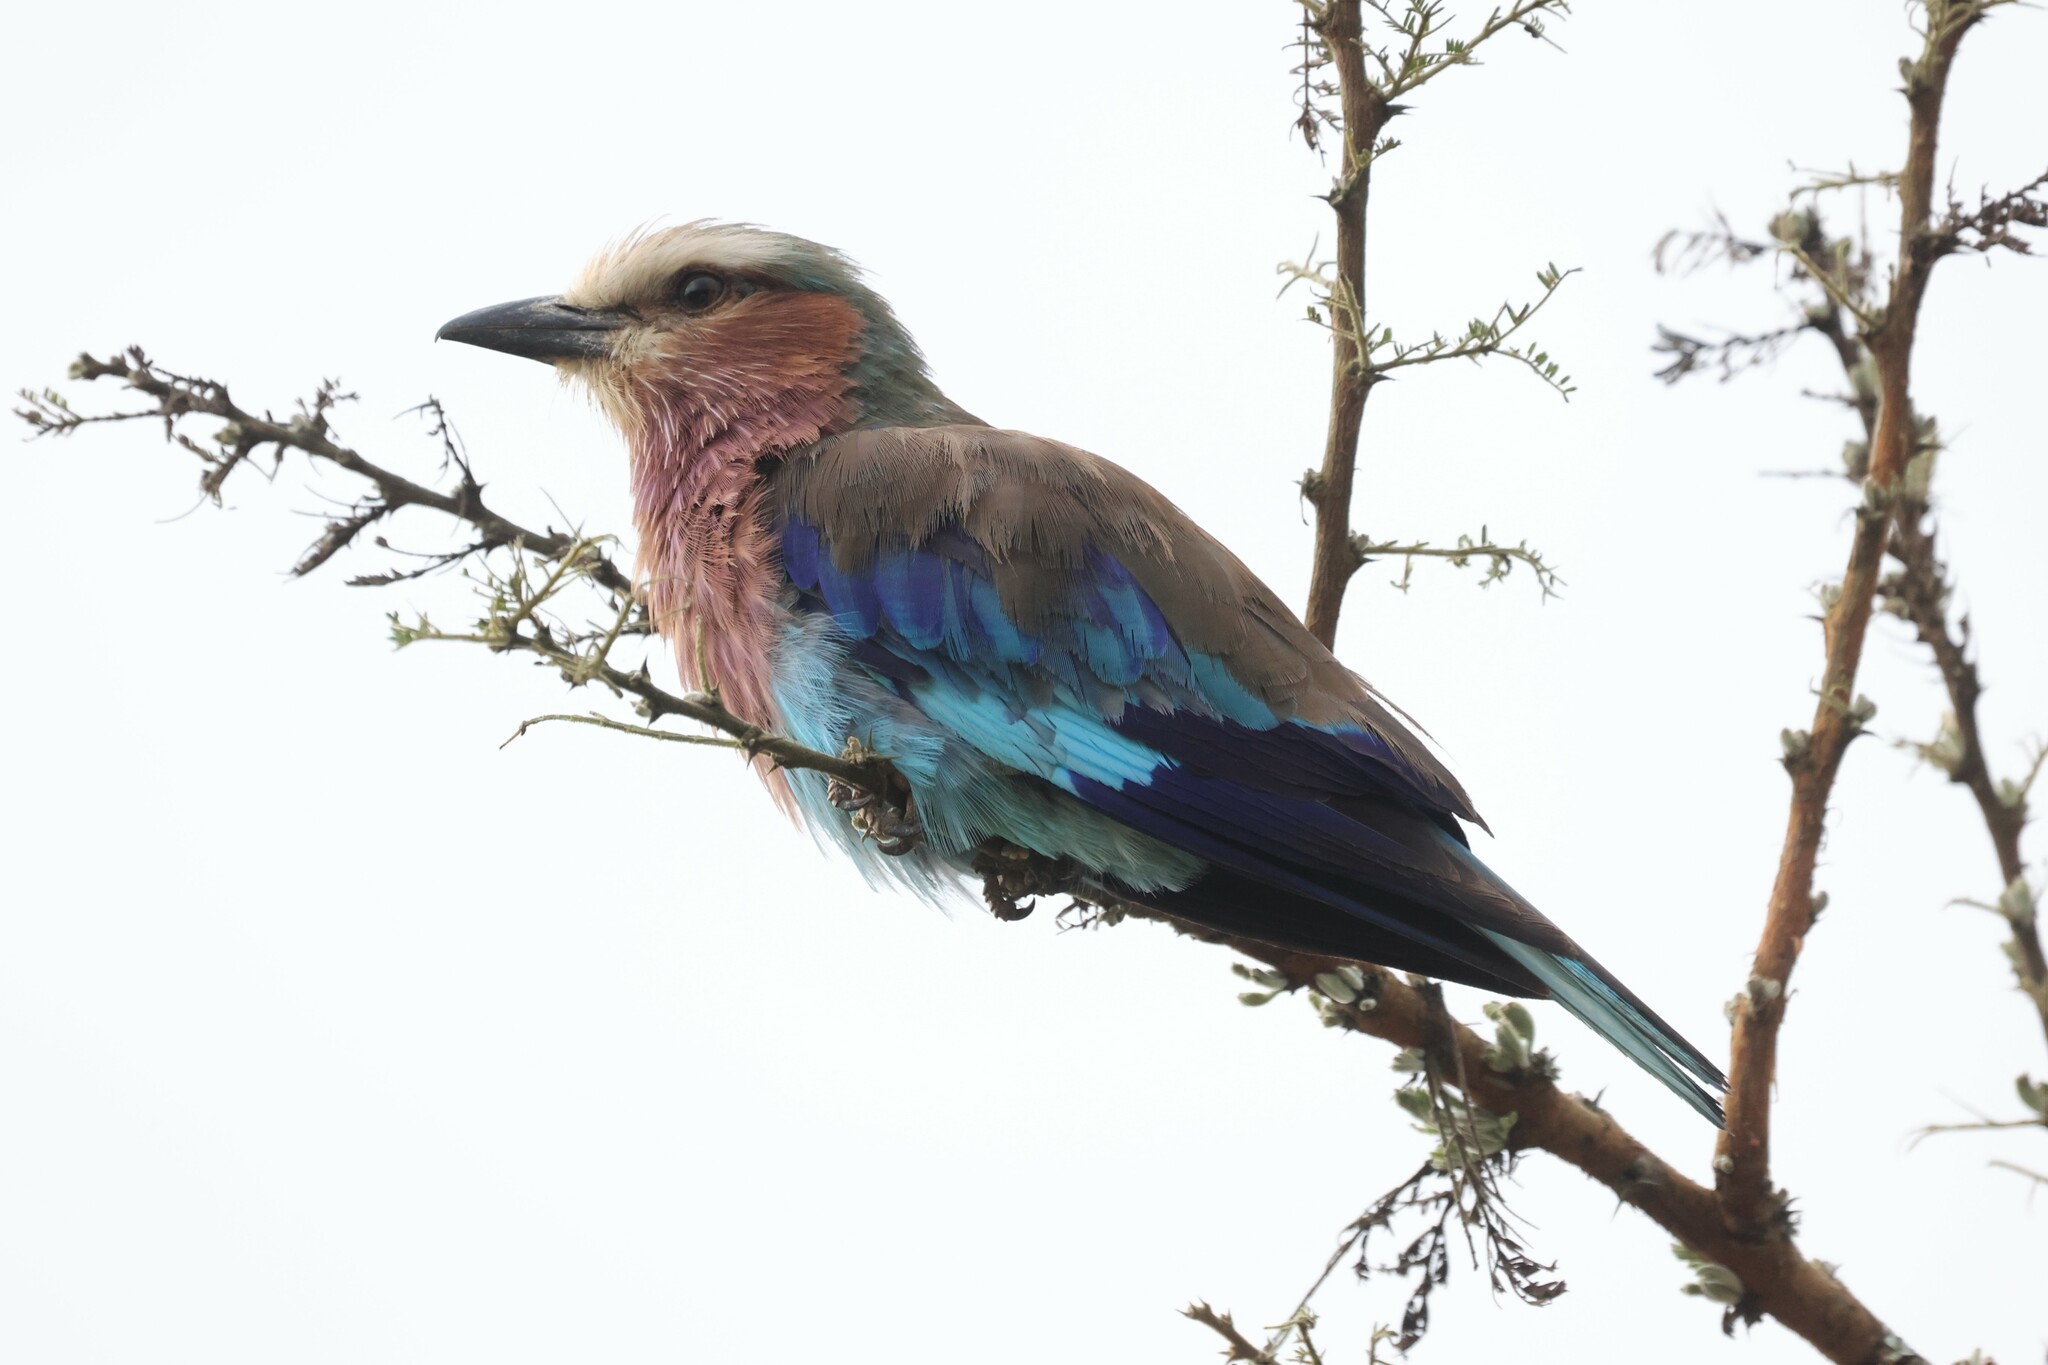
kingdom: Animalia
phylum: Chordata
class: Aves
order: Coraciiformes
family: Coraciidae
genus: Coracias
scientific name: Coracias caudatus
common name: Lilac-breasted roller
